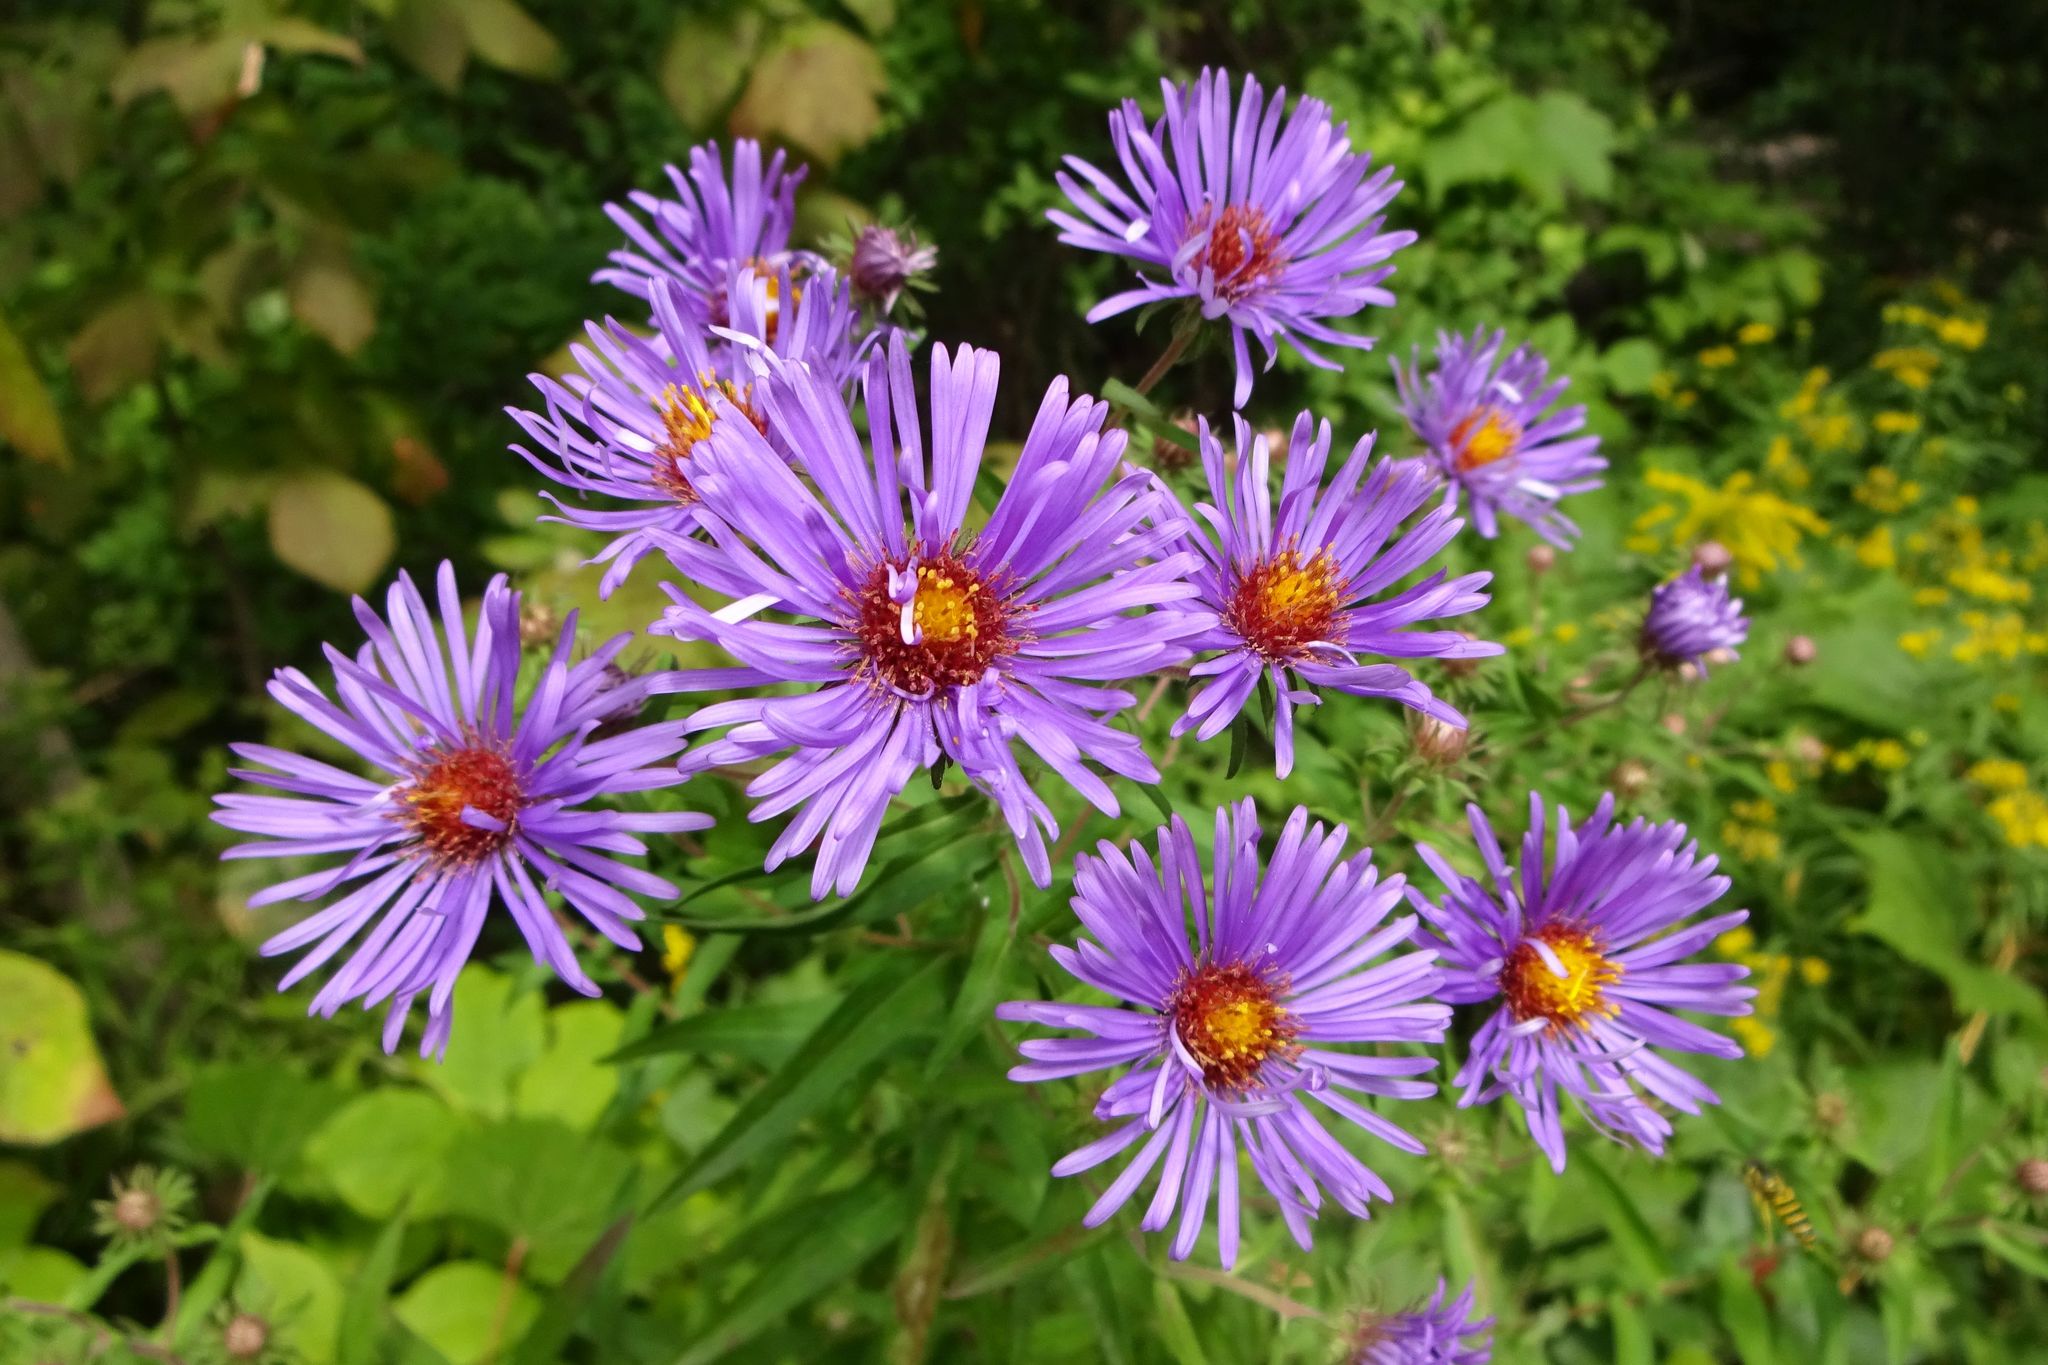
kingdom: Plantae
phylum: Tracheophyta
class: Magnoliopsida
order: Asterales
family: Asteraceae
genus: Symphyotrichum
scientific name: Symphyotrichum novae-angliae
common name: Michaelmas daisy
